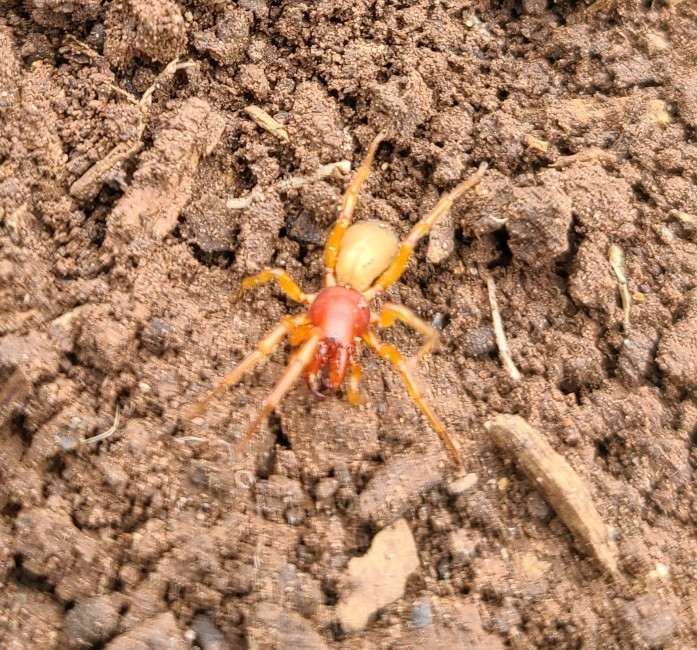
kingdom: Animalia
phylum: Arthropoda
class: Arachnida
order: Araneae
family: Dysderidae
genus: Dysdera
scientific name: Dysdera crocata
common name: Woodlouse spider
